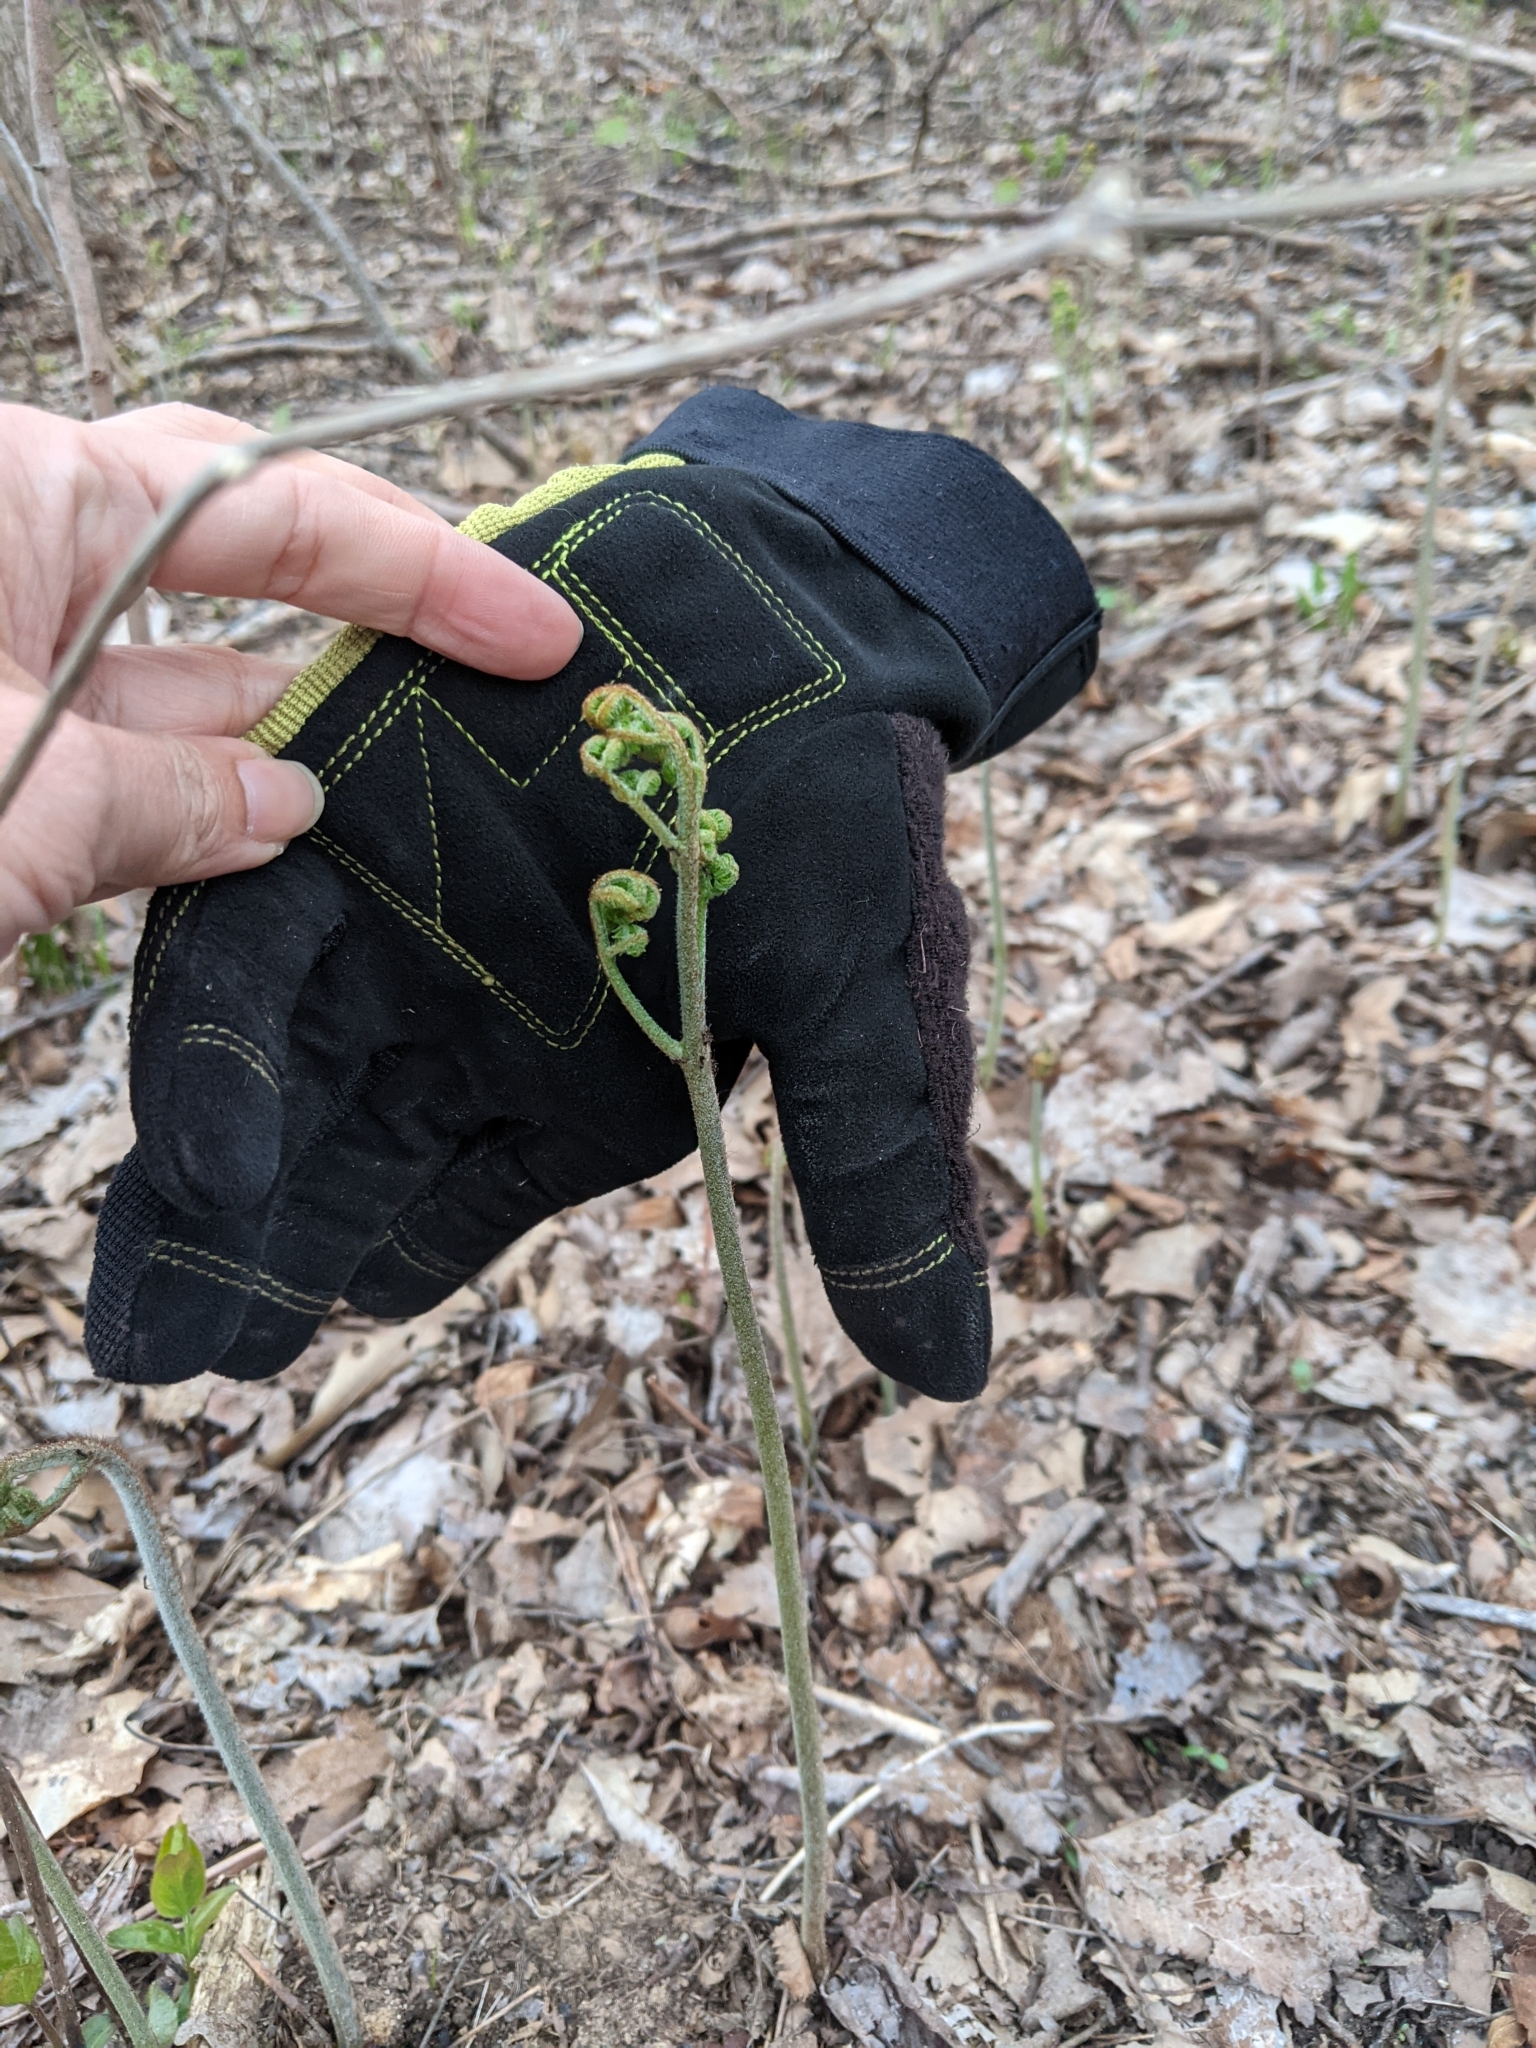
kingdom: Plantae
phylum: Tracheophyta
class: Polypodiopsida
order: Polypodiales
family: Dennstaedtiaceae
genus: Pteridium
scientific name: Pteridium aquilinum
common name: Bracken
